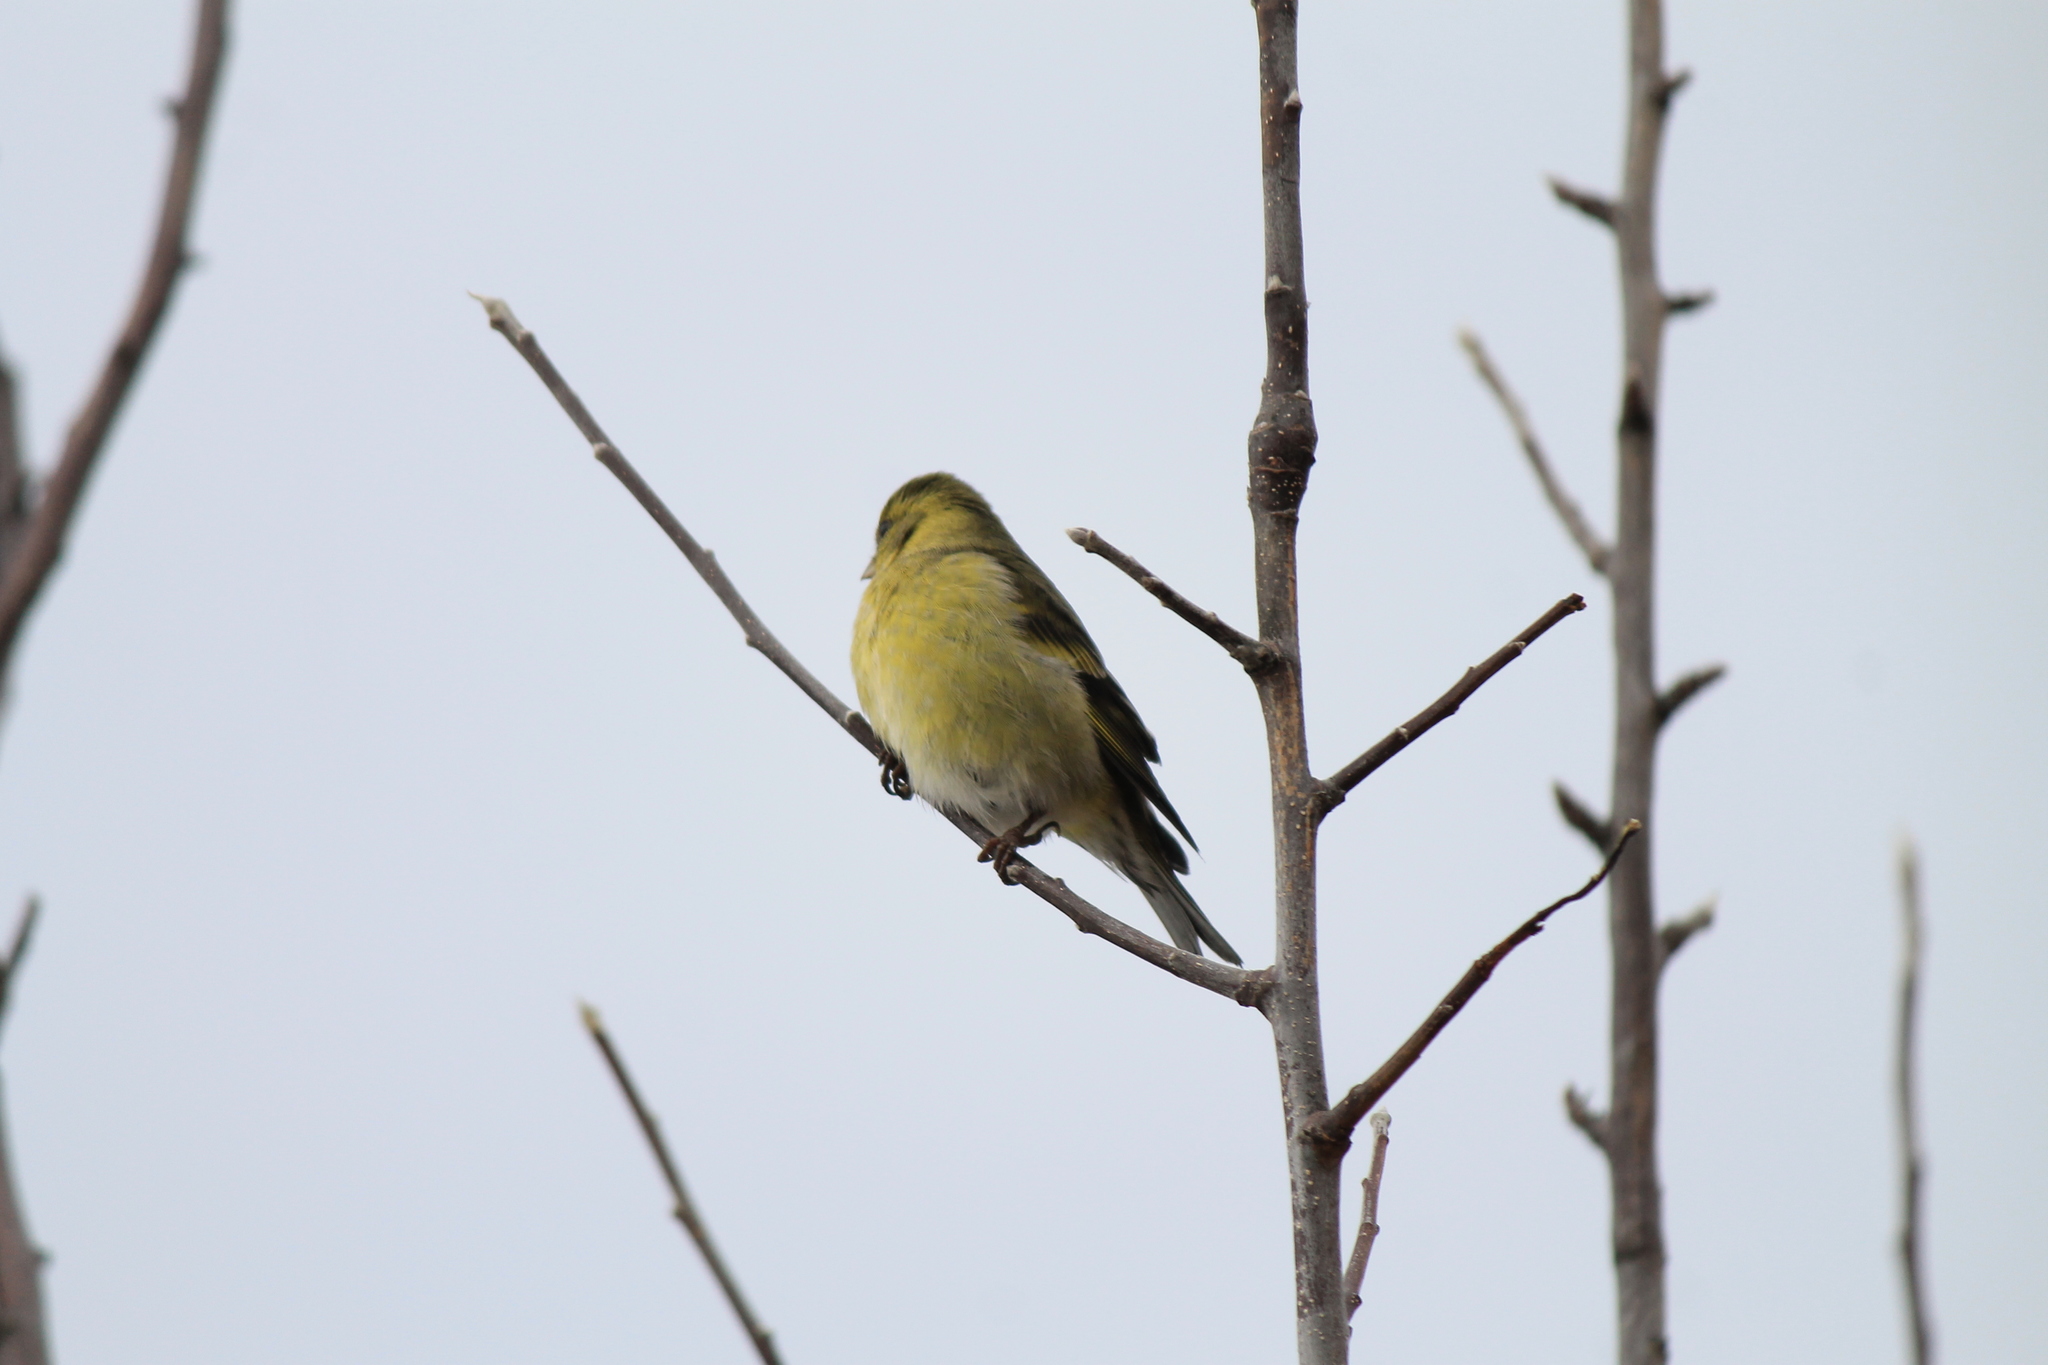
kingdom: Animalia
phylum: Chordata
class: Aves
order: Passeriformes
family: Fringillidae
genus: Spinus
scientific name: Spinus barbatus
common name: Black-chinned siskin
